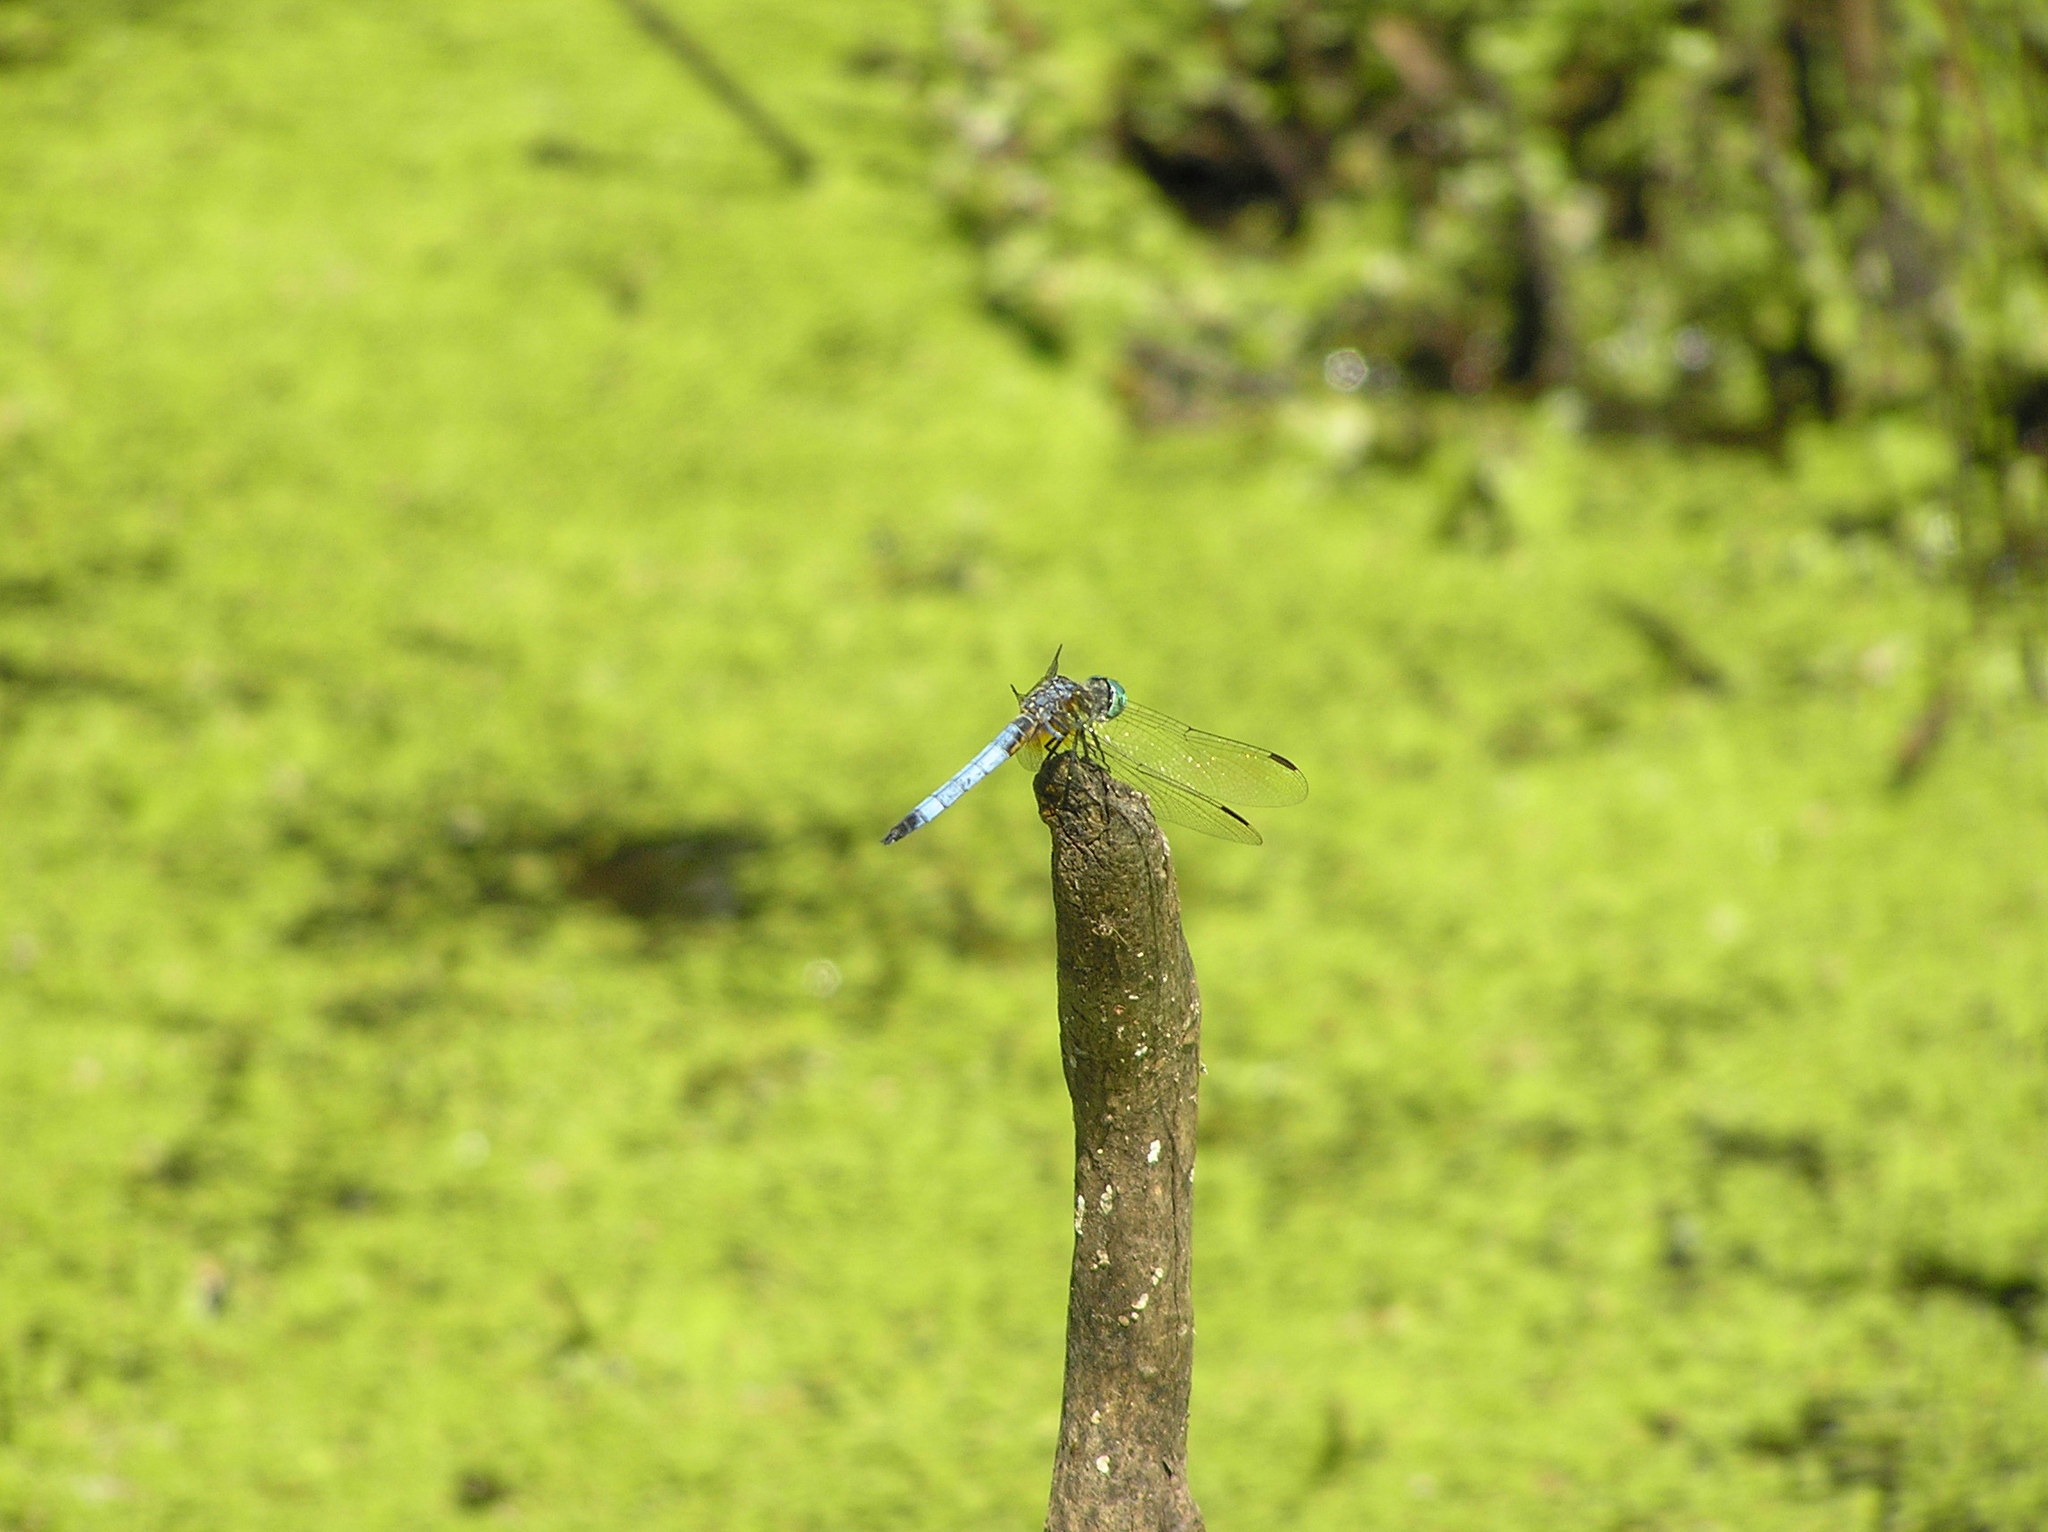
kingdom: Animalia
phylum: Arthropoda
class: Insecta
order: Odonata
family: Libellulidae
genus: Pachydiplax
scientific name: Pachydiplax longipennis
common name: Blue dasher
